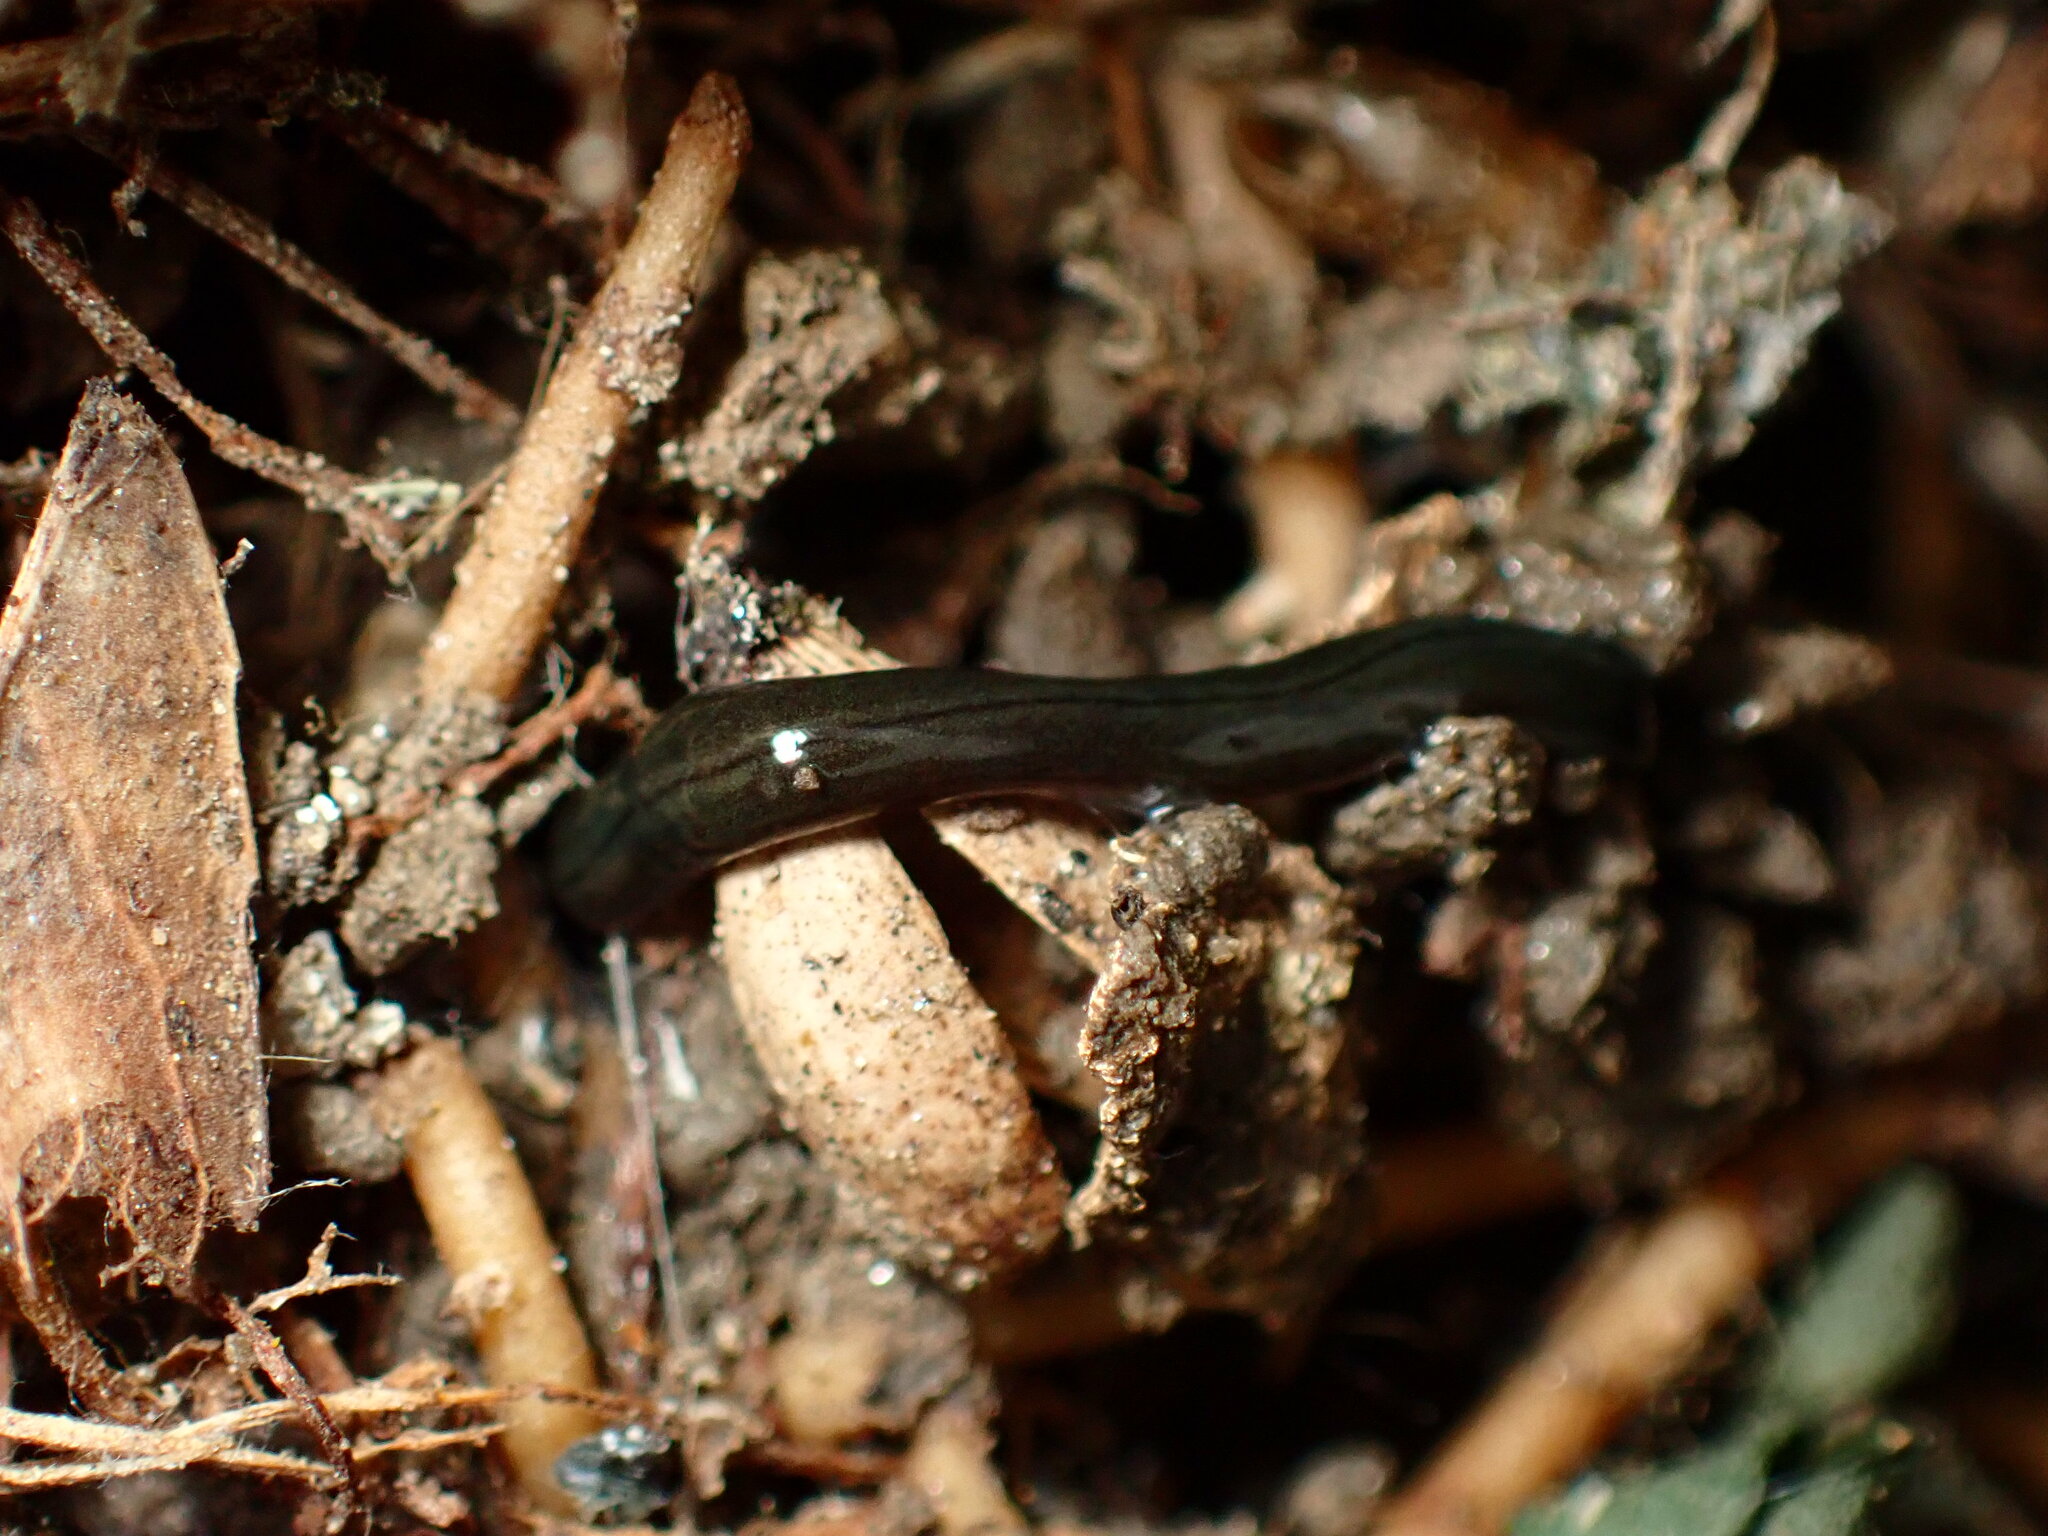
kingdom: Animalia
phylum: Platyhelminthes
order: Tricladida
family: Geoplanidae
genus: Parakontikia
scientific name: Parakontikia ventrolineata
